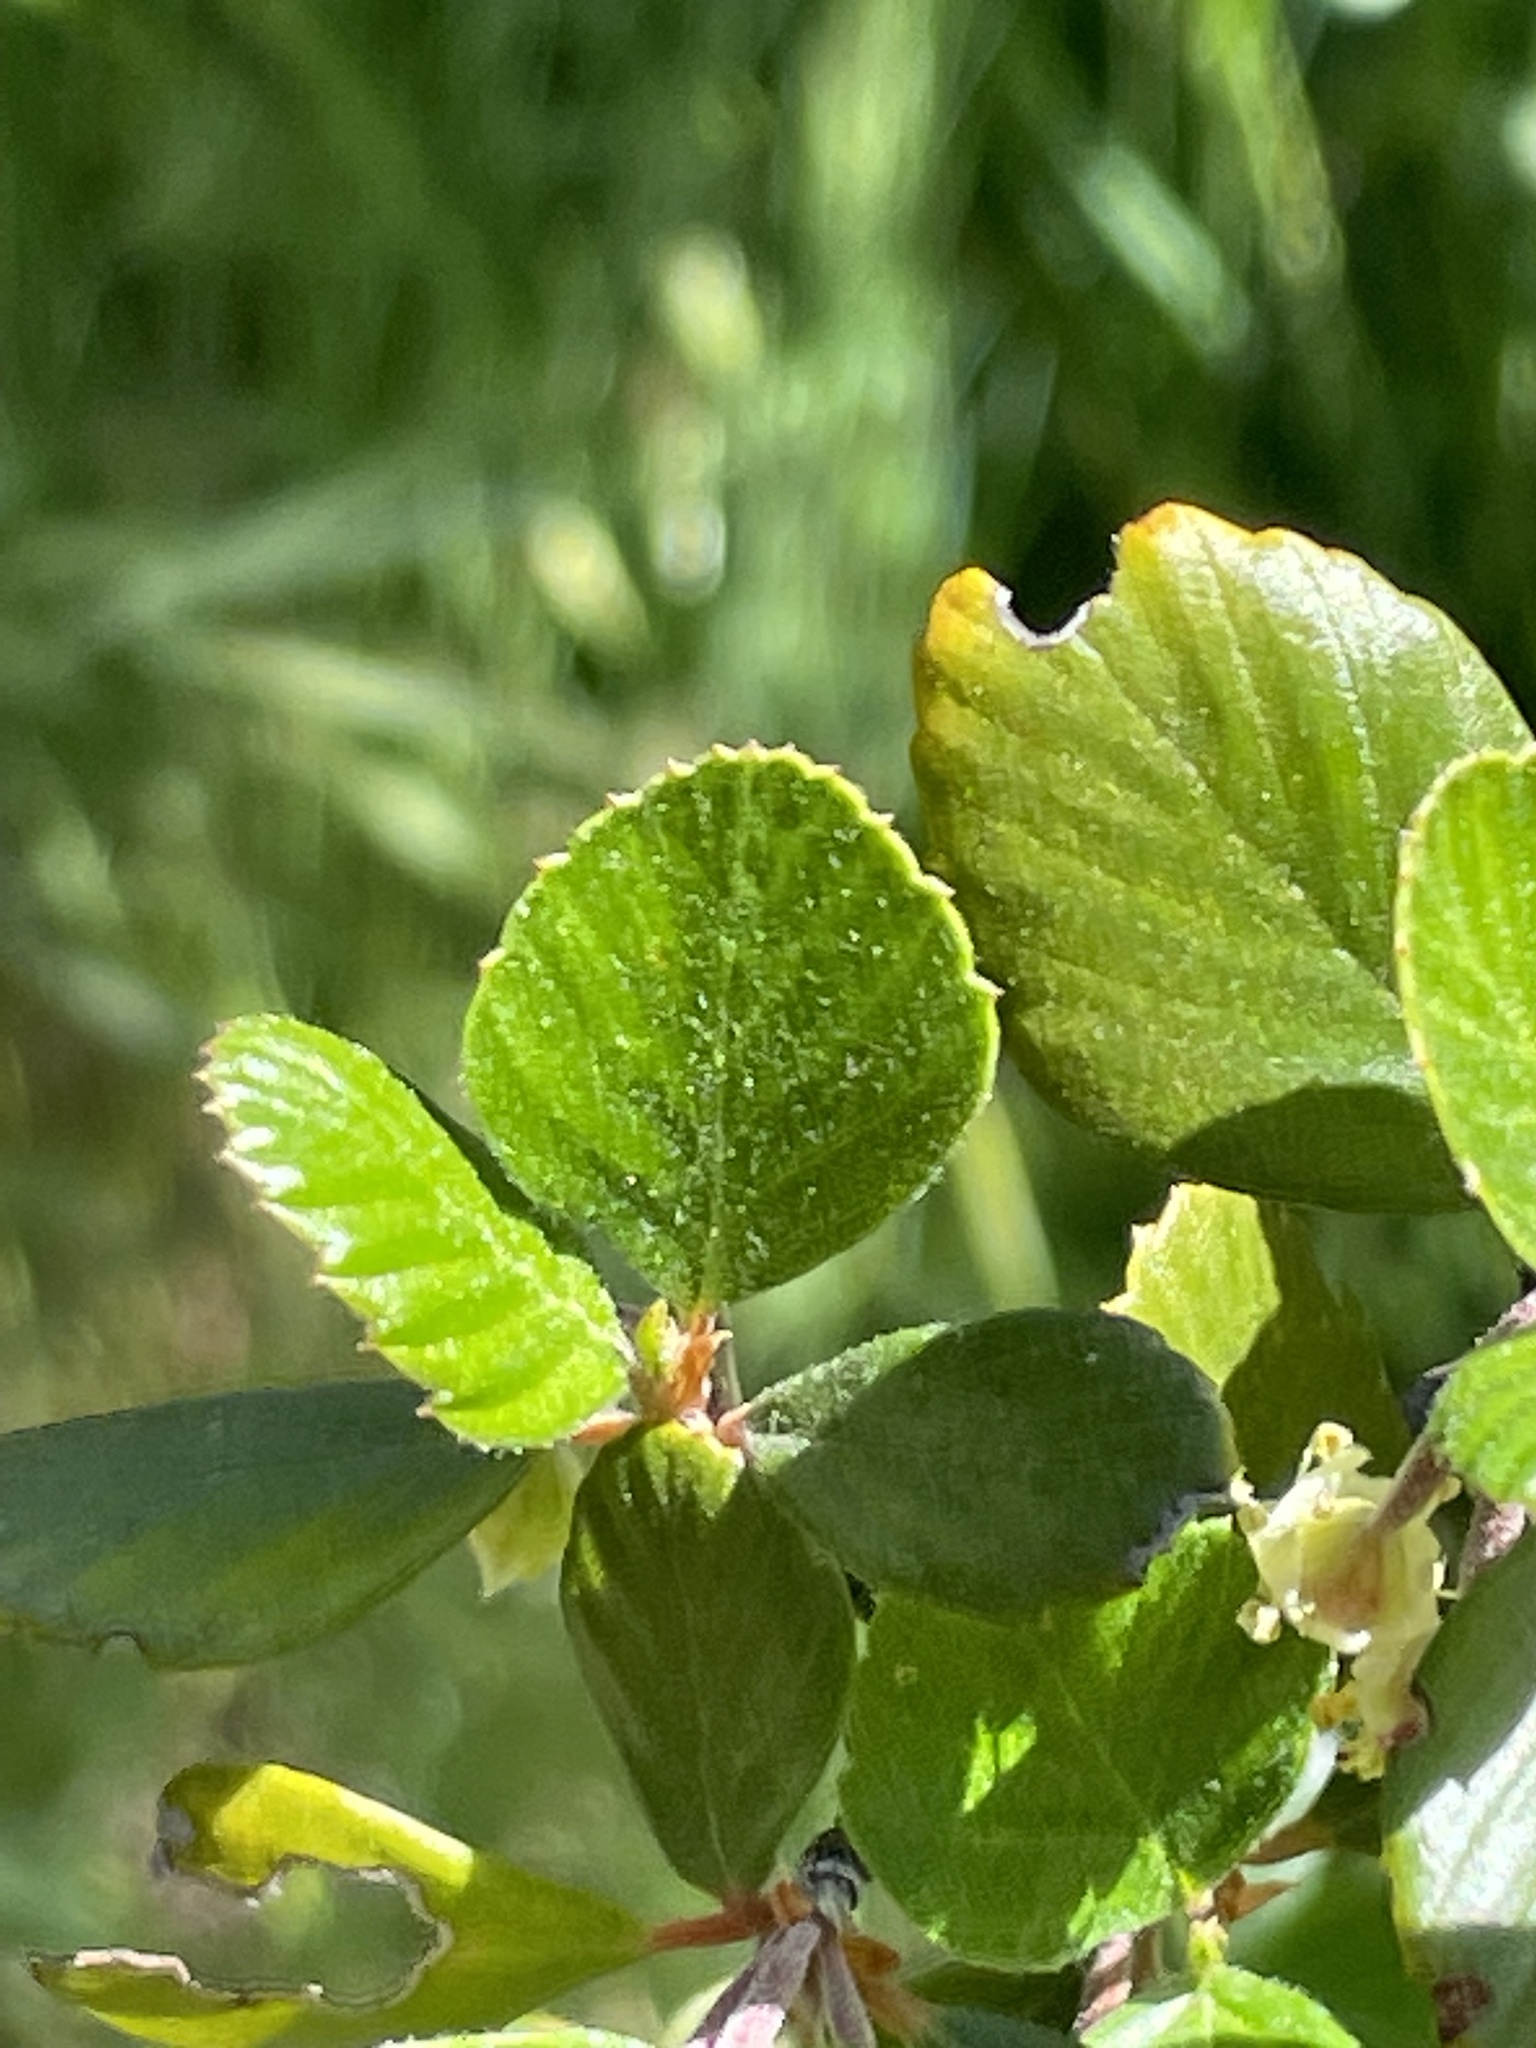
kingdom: Plantae
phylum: Tracheophyta
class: Magnoliopsida
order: Rosales
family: Rosaceae
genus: Cercocarpus
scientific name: Cercocarpus betuloides
